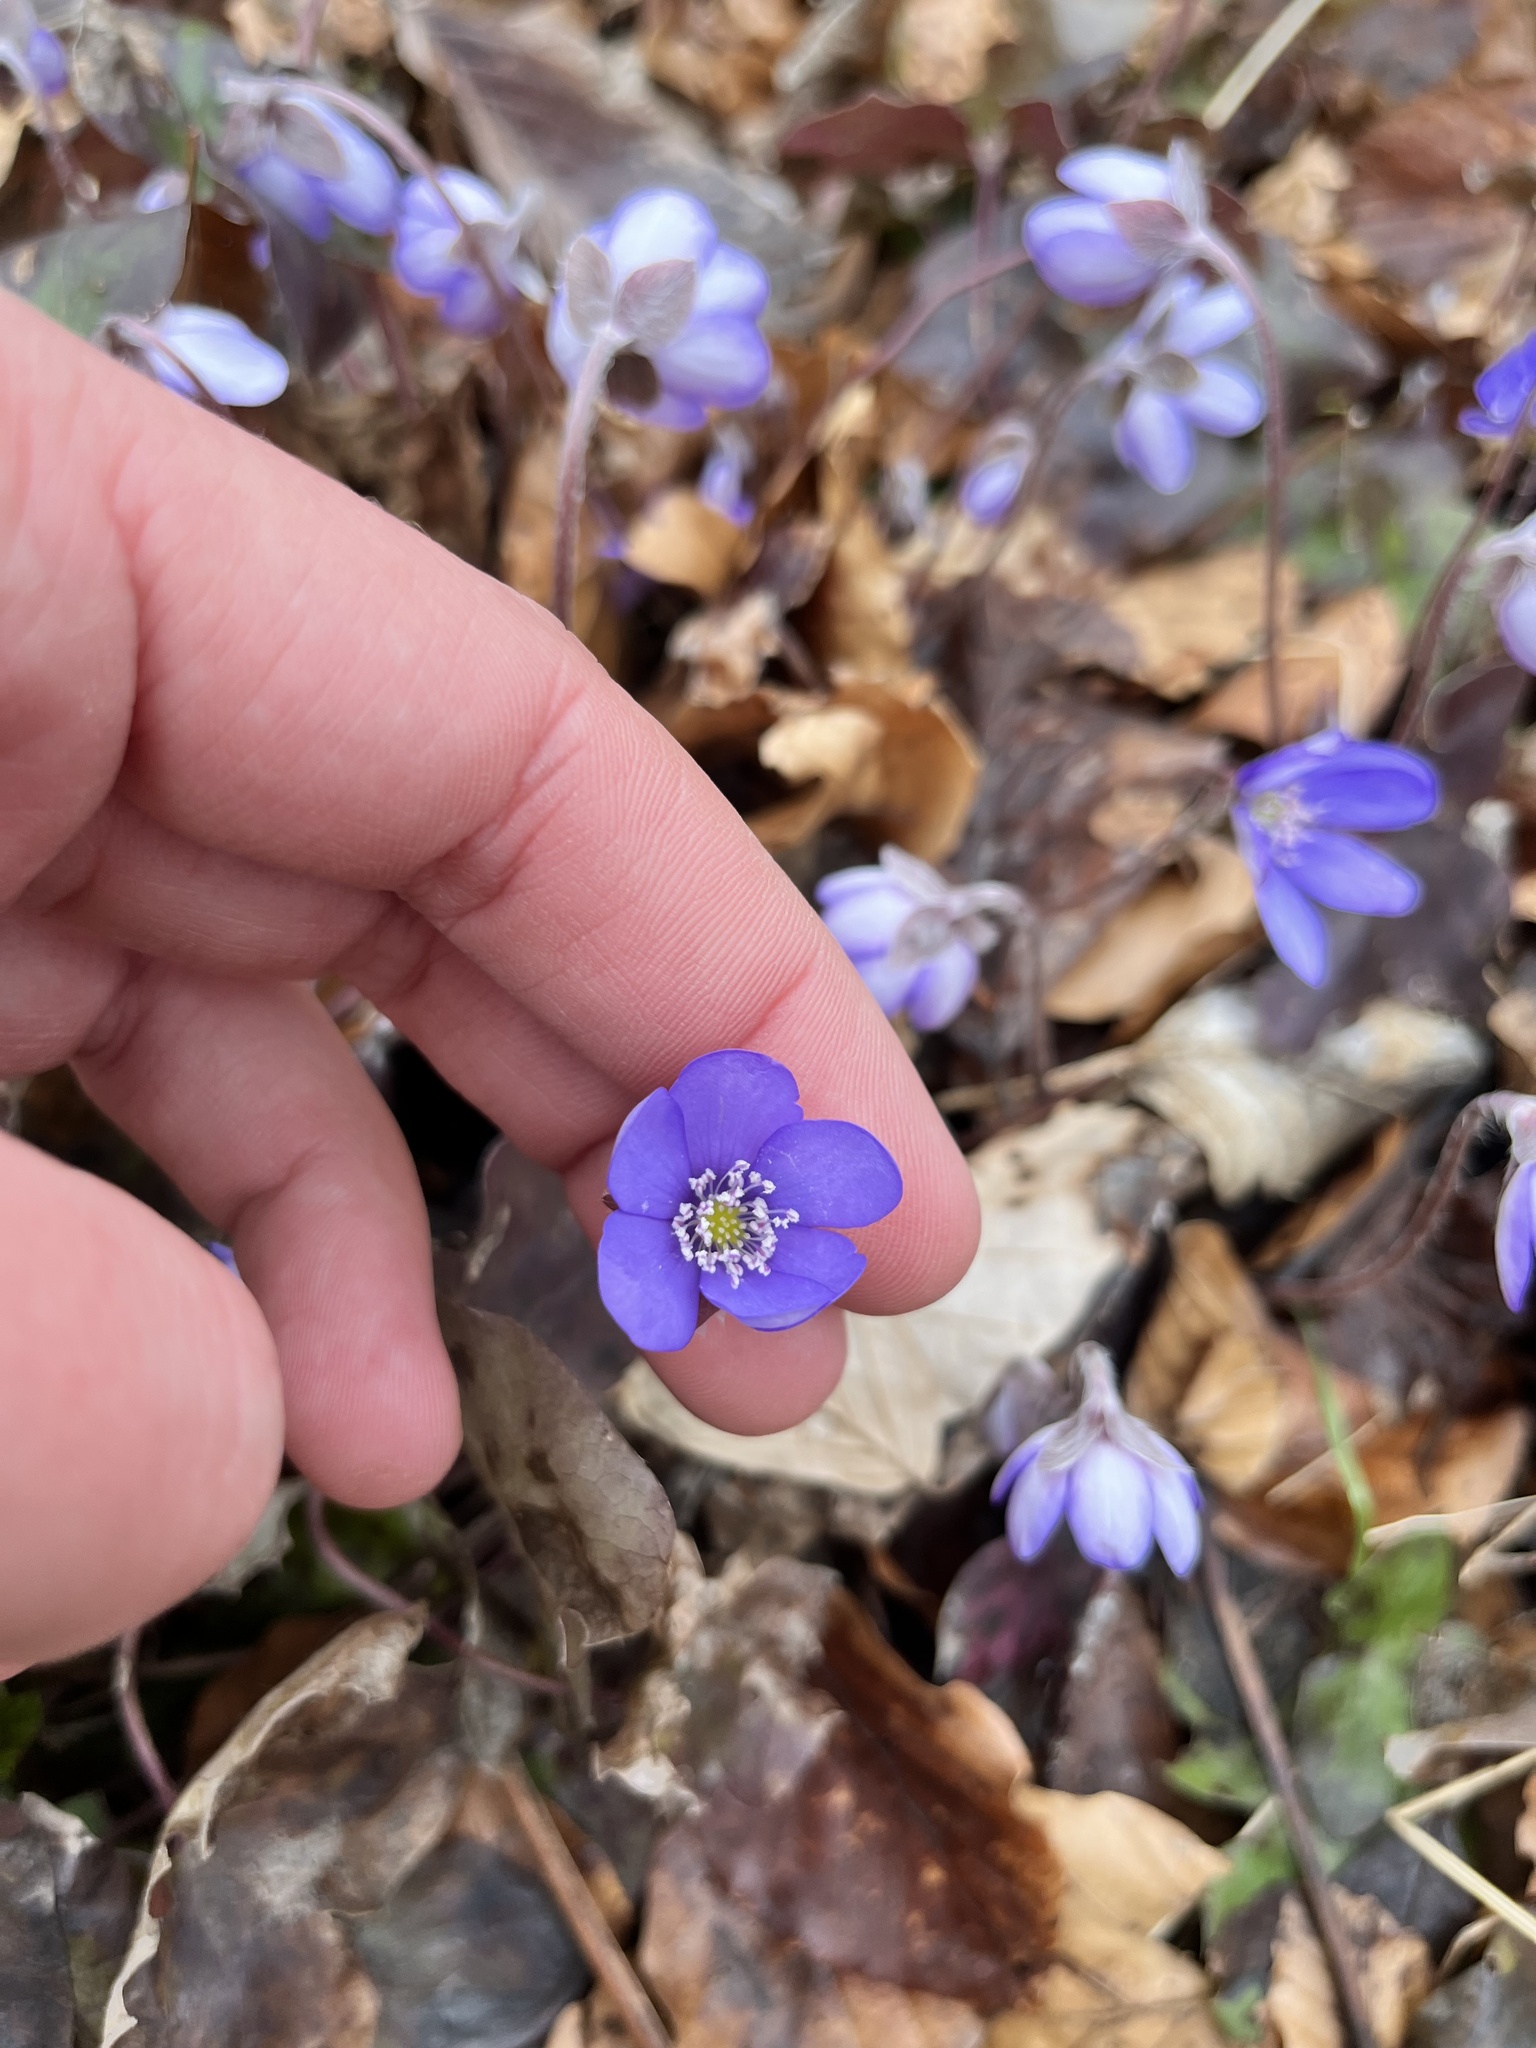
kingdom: Plantae
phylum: Tracheophyta
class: Magnoliopsida
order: Ranunculales
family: Ranunculaceae
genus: Hepatica
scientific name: Hepatica nobilis
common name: Liverleaf
